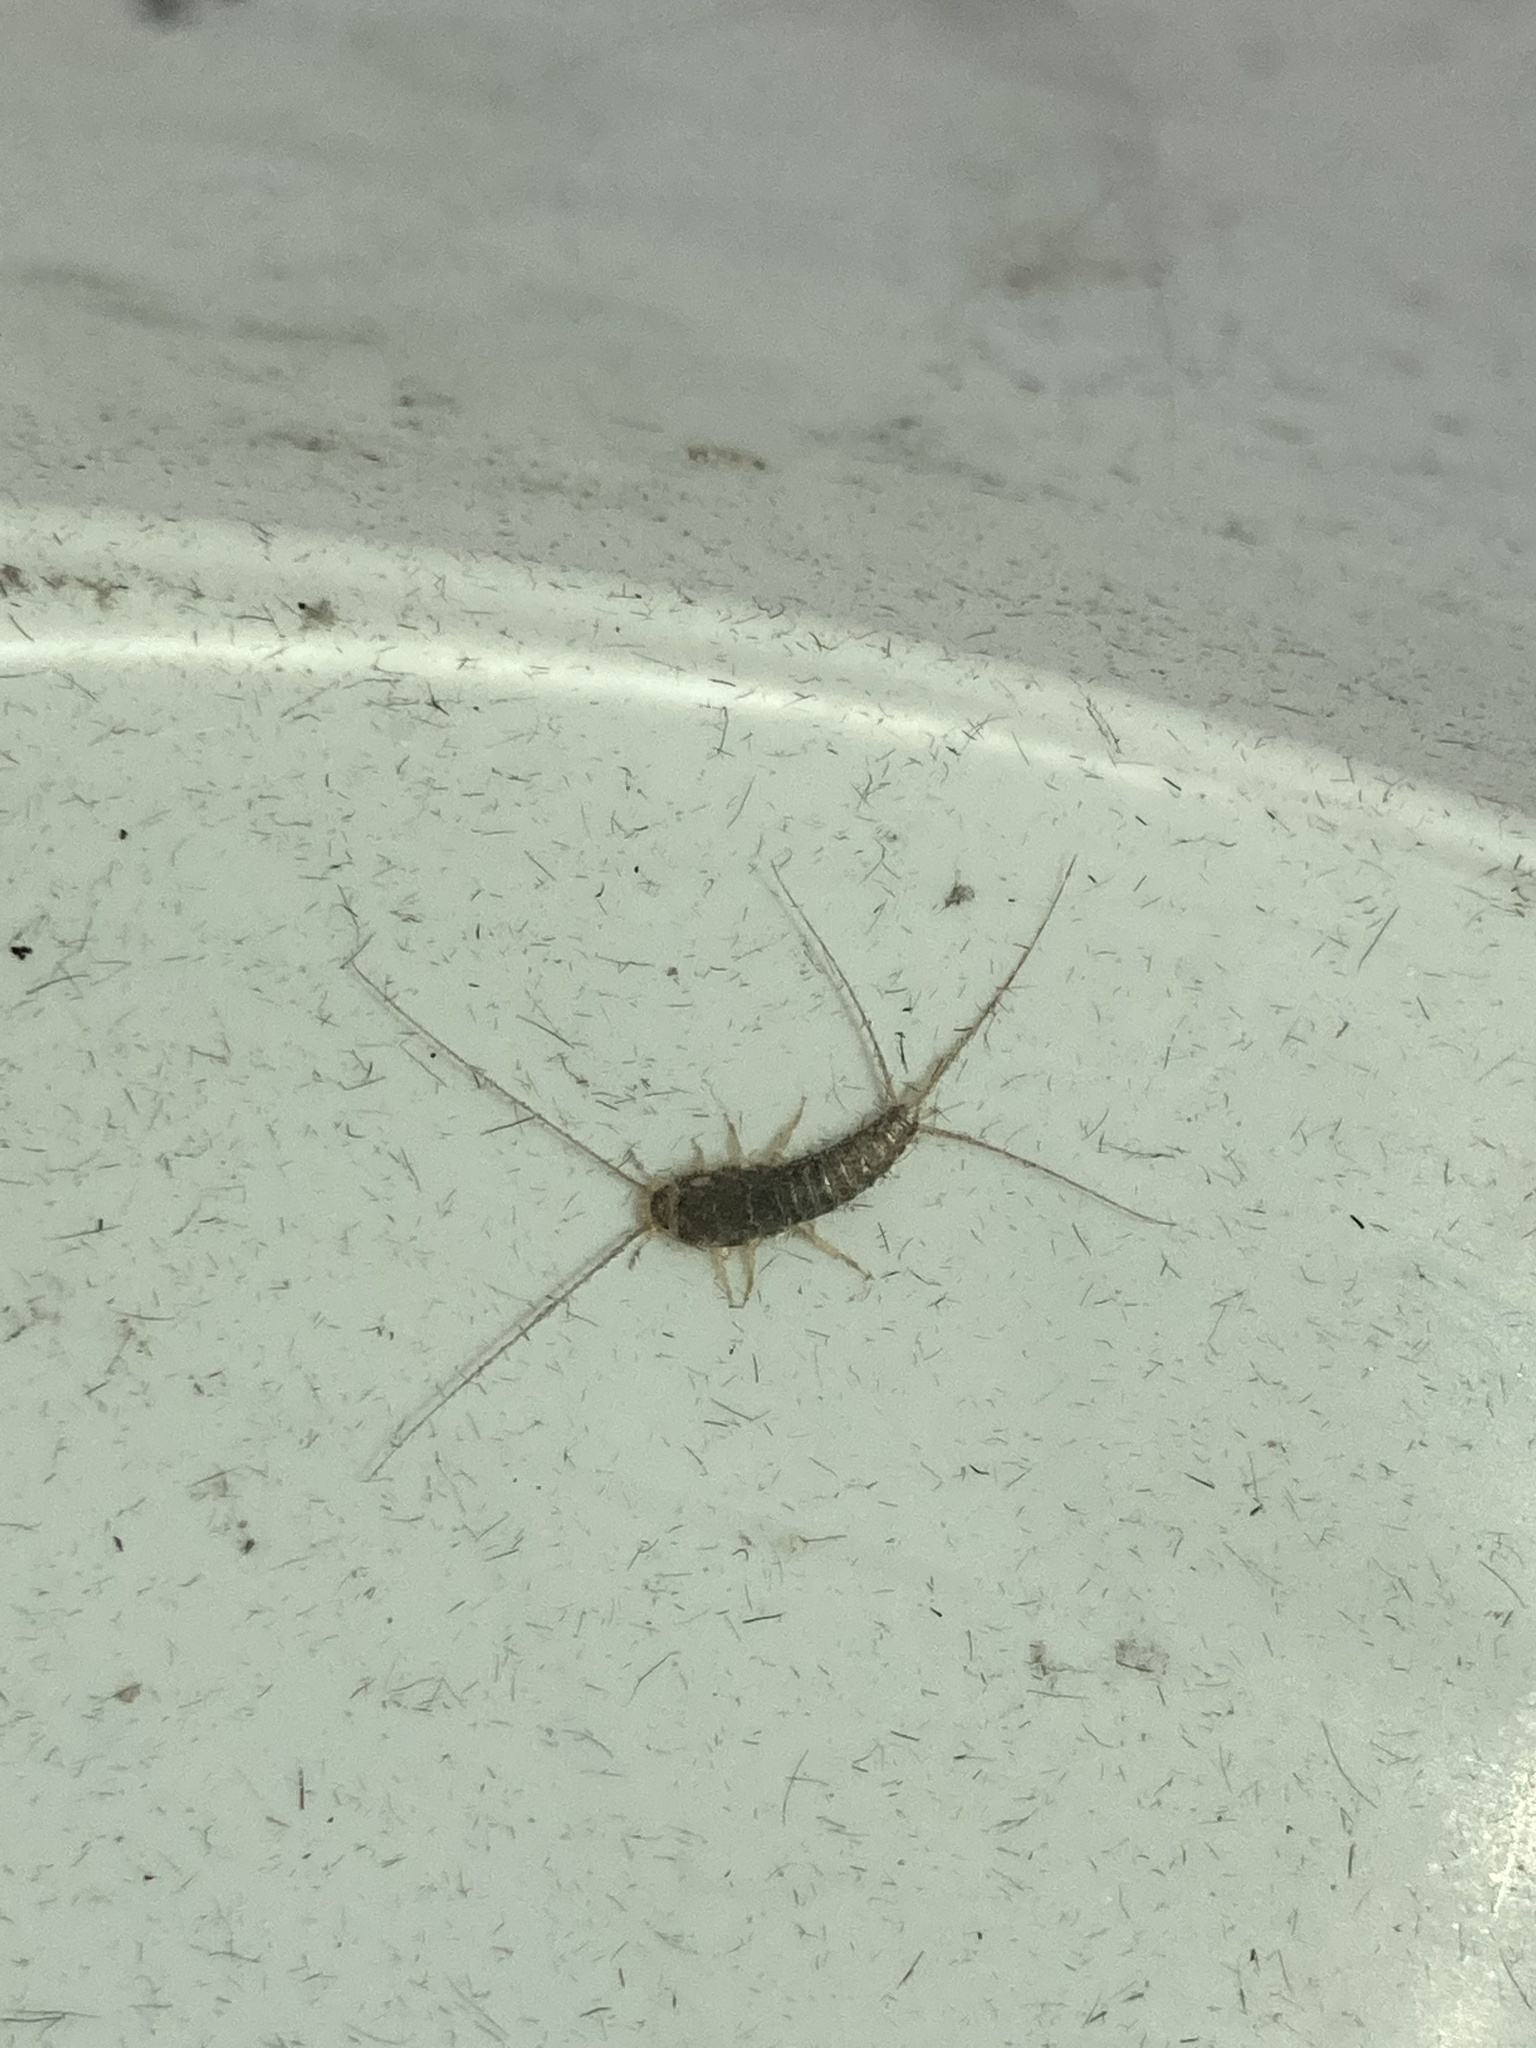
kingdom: Animalia
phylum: Arthropoda
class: Insecta
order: Zygentoma
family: Lepismatidae
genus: Ctenolepisma
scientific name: Ctenolepisma longicaudatum
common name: Silverfish
